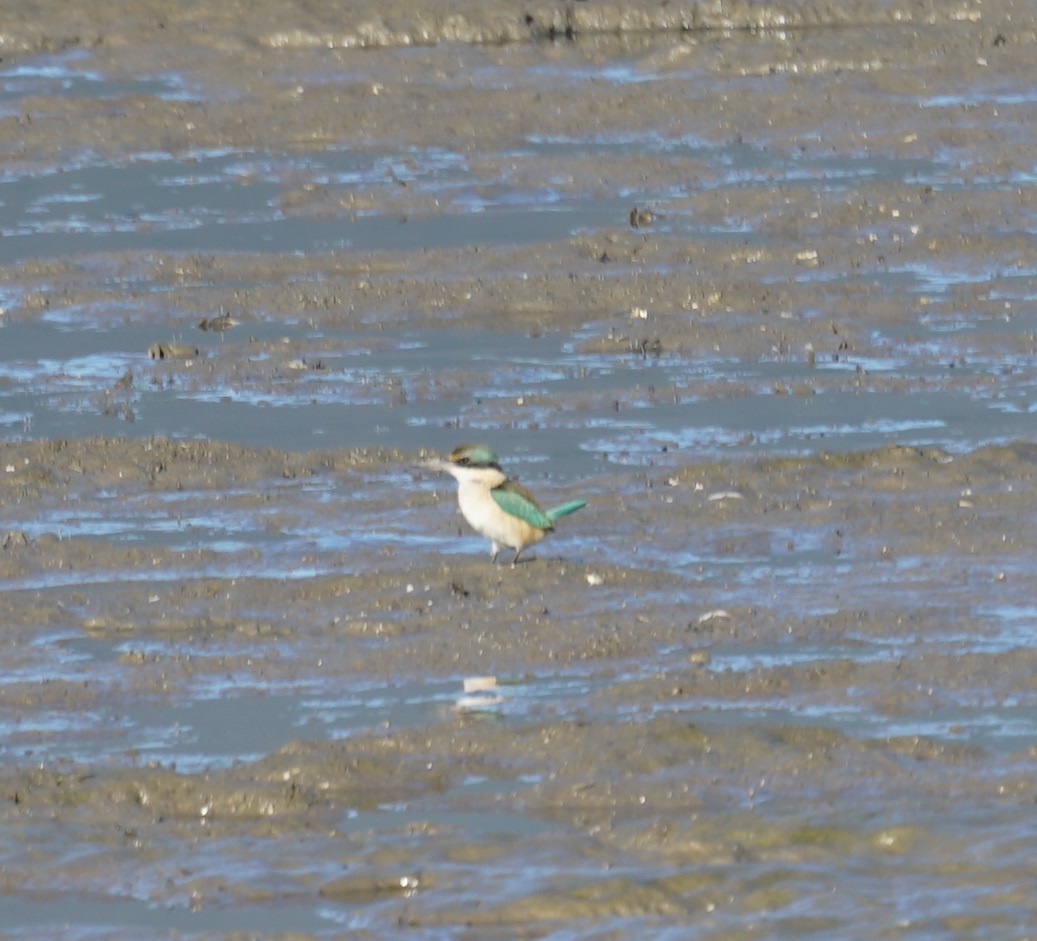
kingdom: Animalia
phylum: Chordata
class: Aves
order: Coraciiformes
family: Alcedinidae
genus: Todiramphus
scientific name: Todiramphus sanctus
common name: Sacred kingfisher
